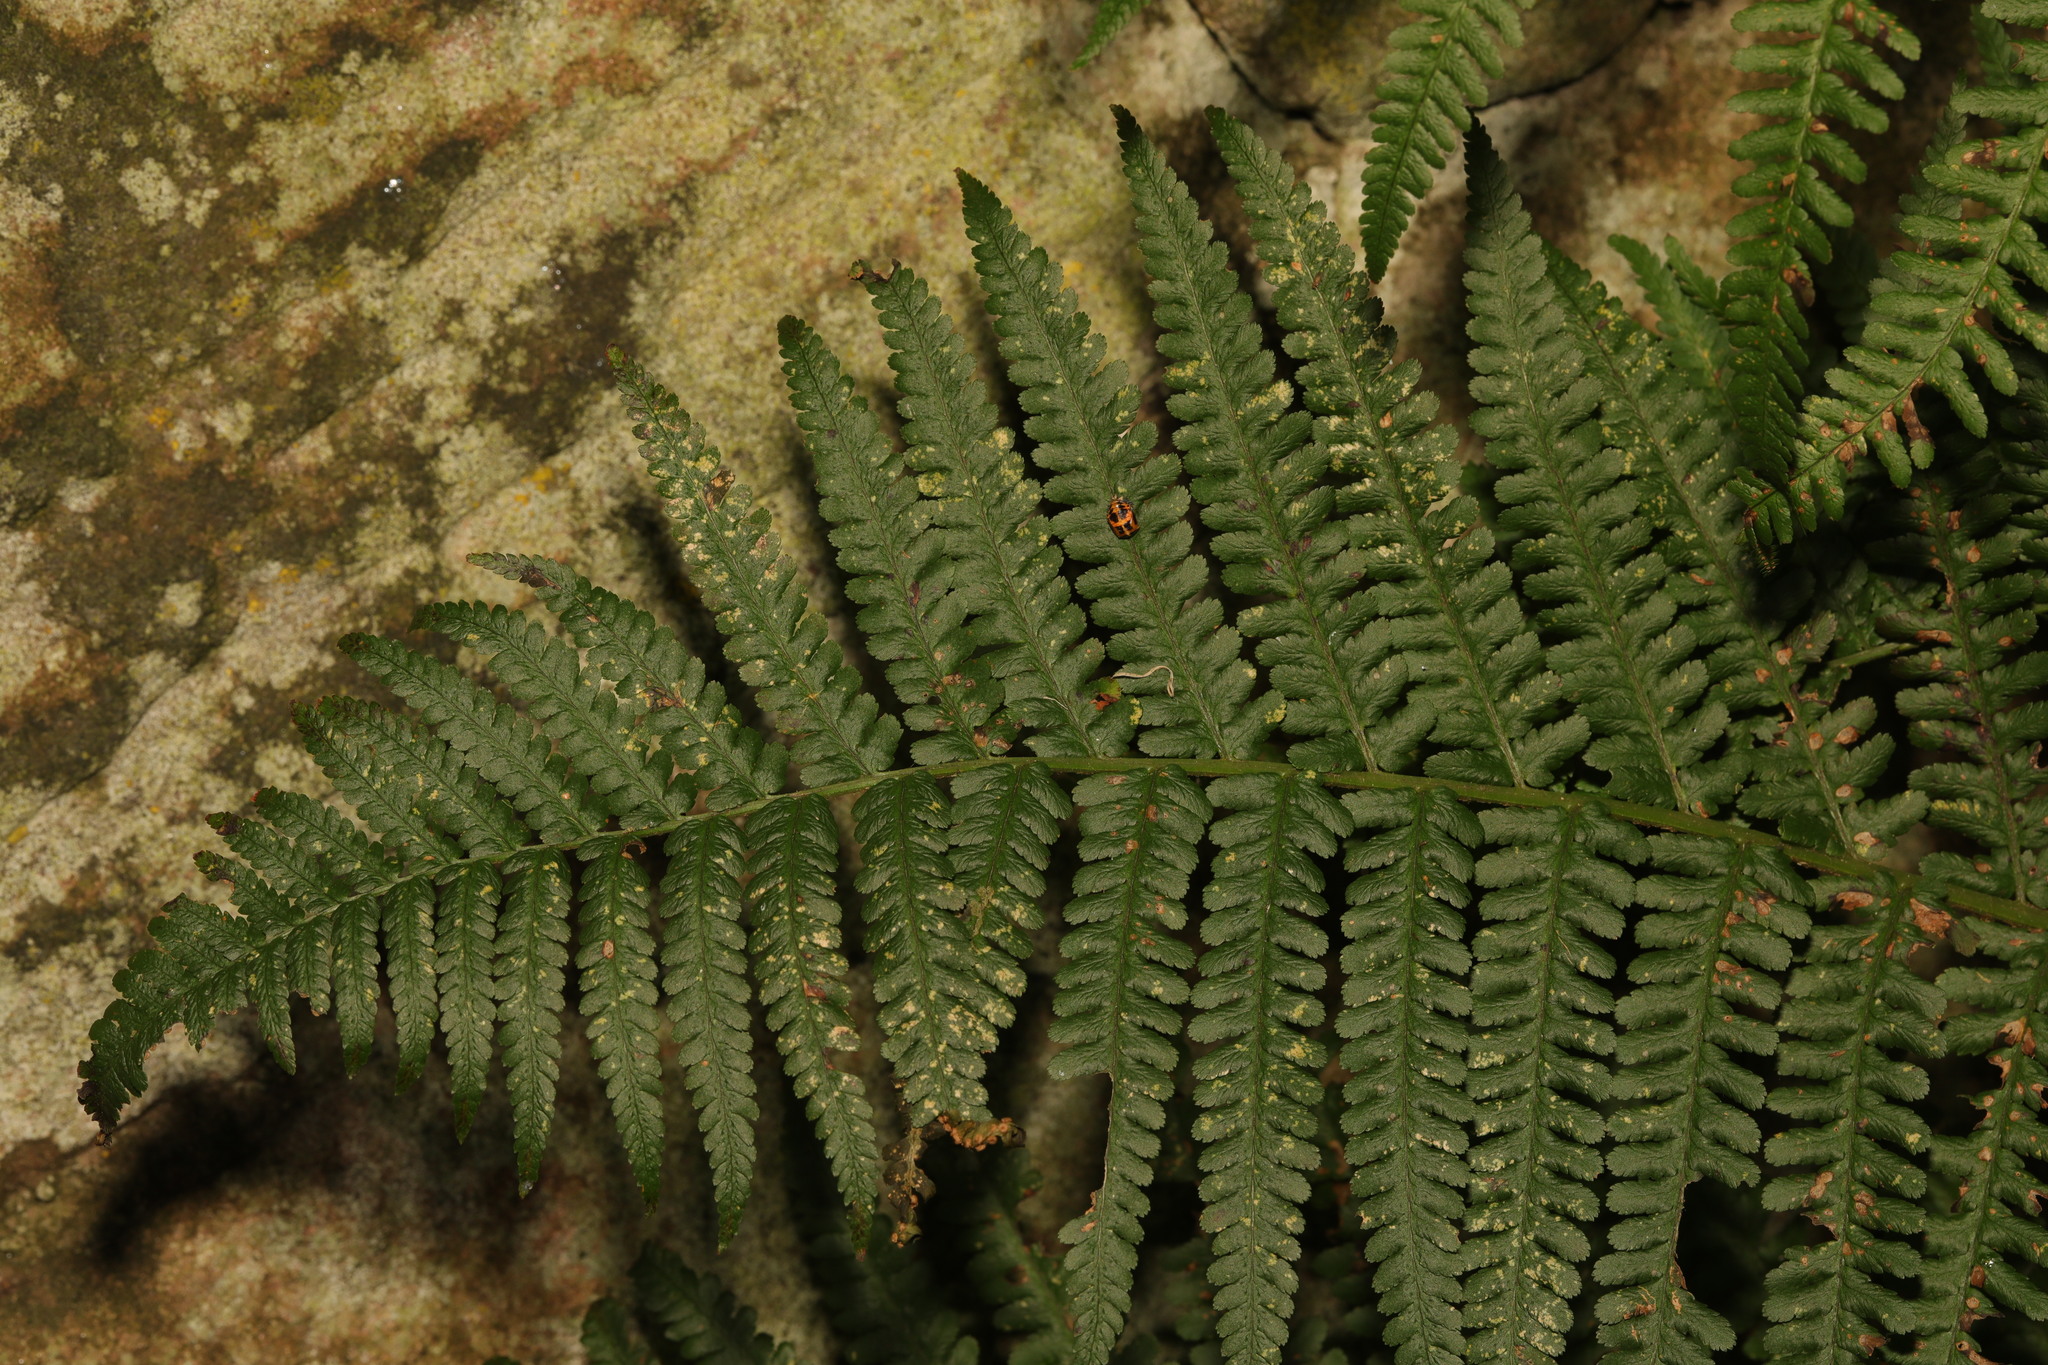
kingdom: Plantae
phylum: Tracheophyta
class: Polypodiopsida
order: Polypodiales
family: Dryopteridaceae
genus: Dryopteris
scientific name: Dryopteris filix-mas
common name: Male fern
